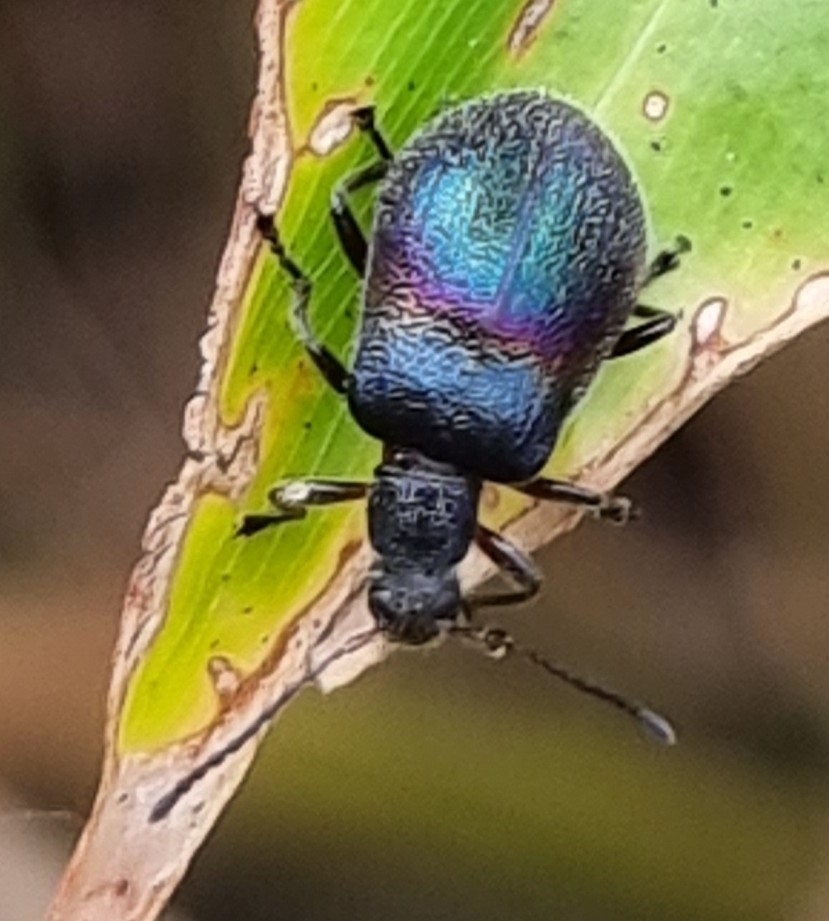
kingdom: Animalia
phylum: Arthropoda
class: Insecta
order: Coleoptera
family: Tenebrionidae
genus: Ecnolagria
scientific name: Ecnolagria
